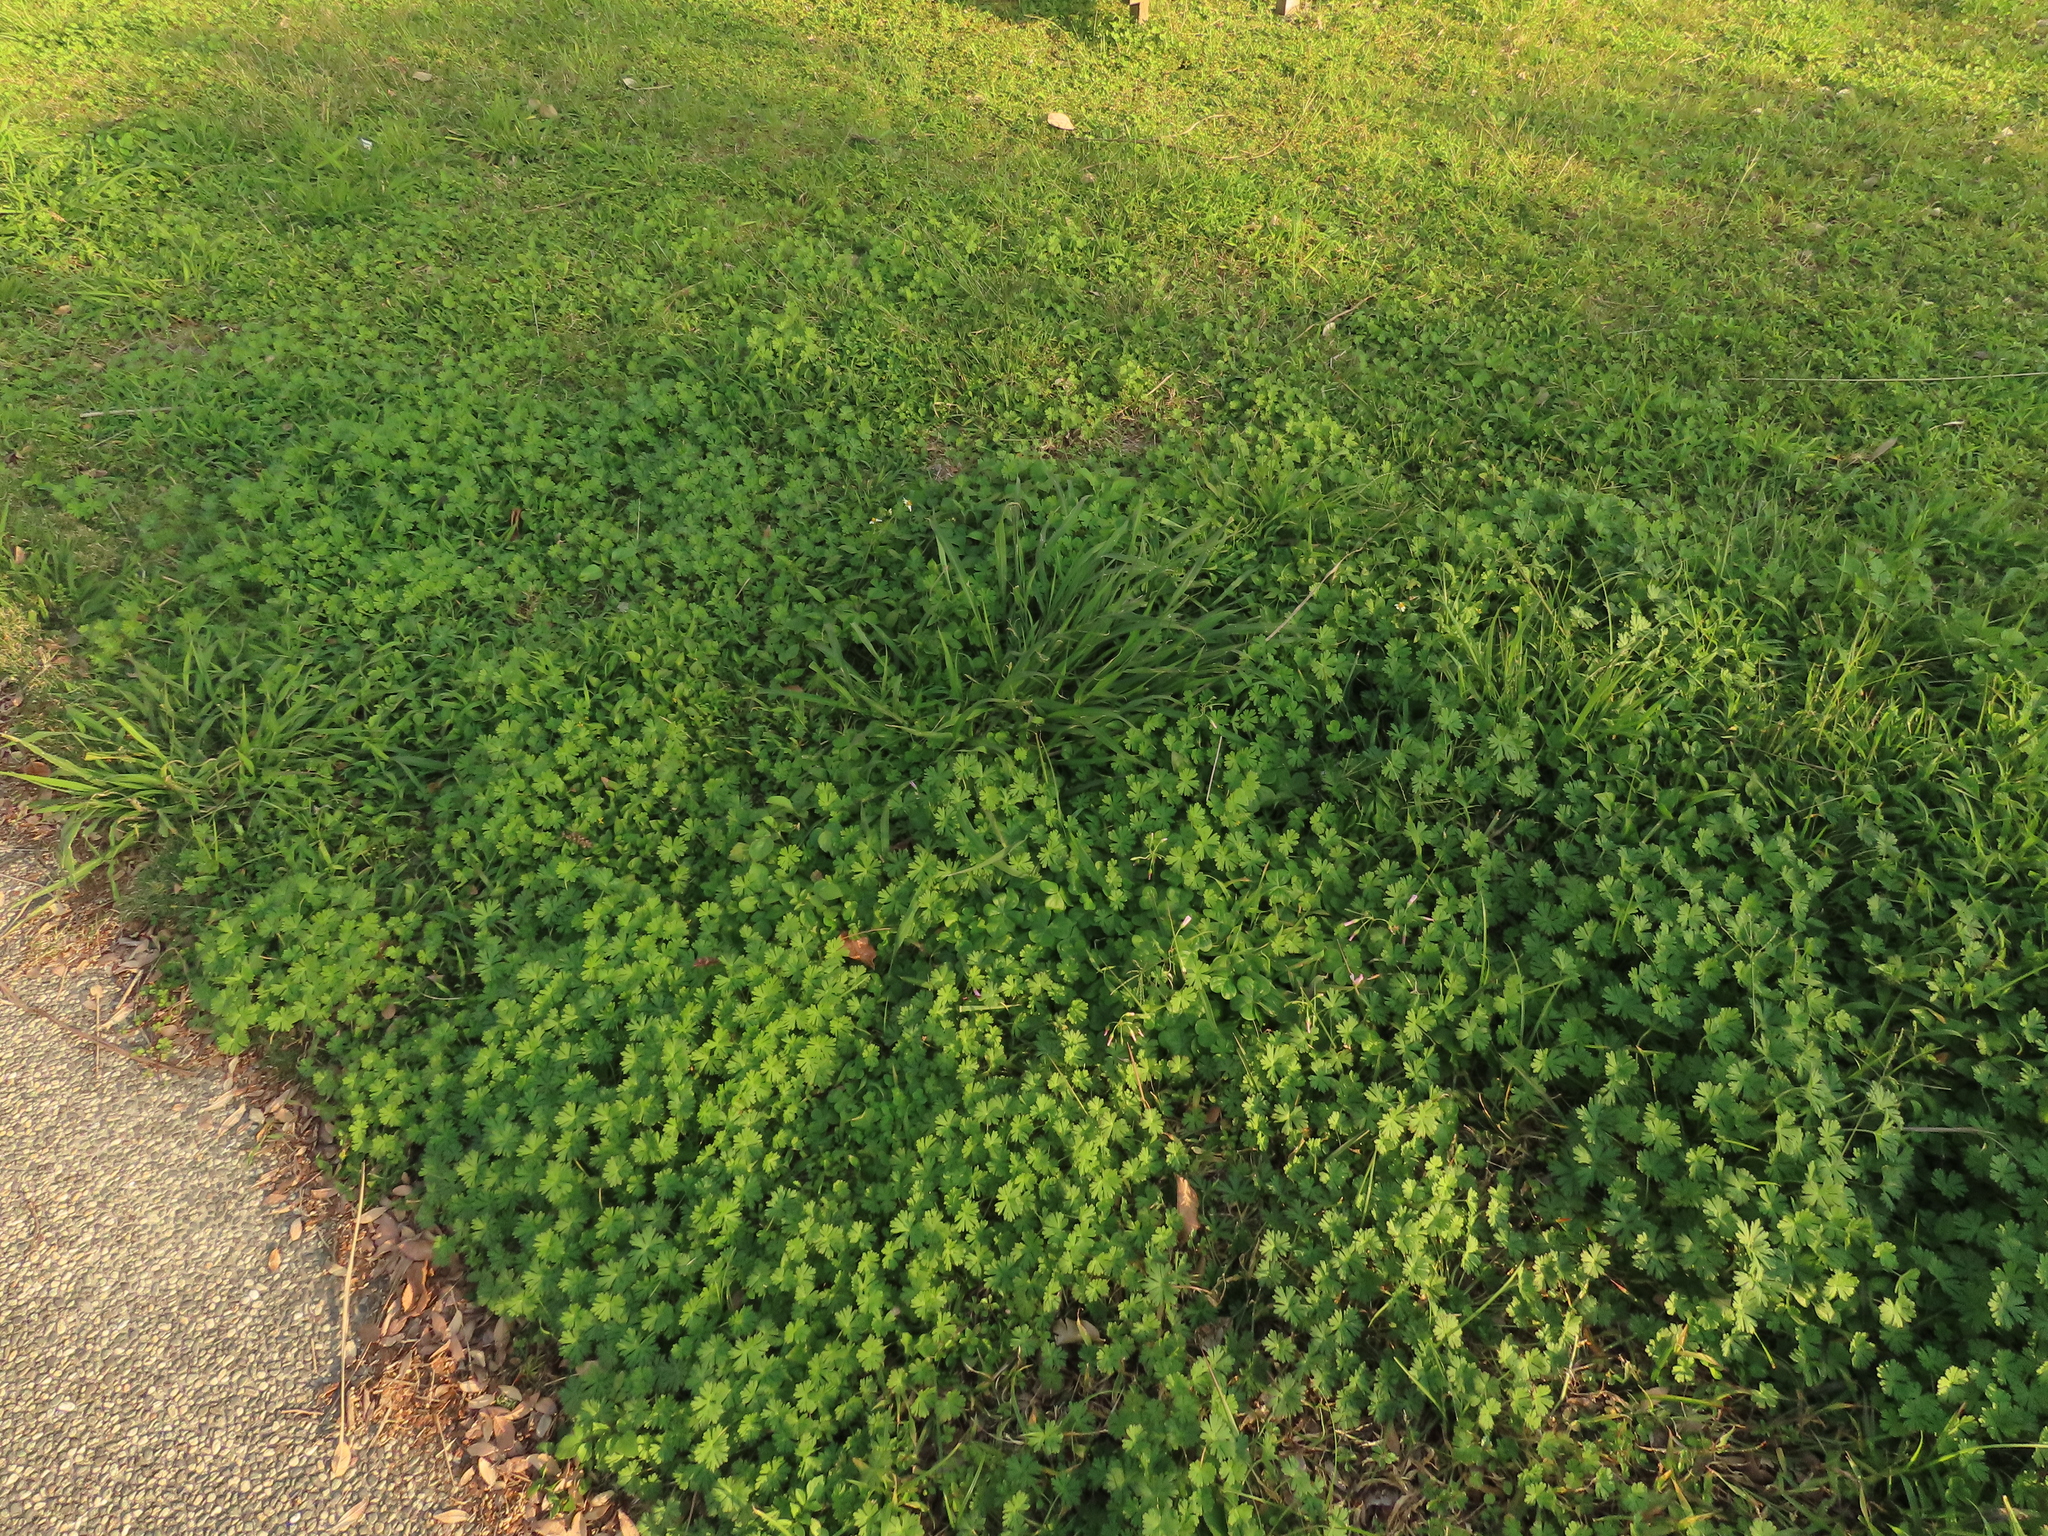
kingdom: Plantae
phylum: Tracheophyta
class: Magnoliopsida
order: Geraniales
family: Geraniaceae
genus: Geranium
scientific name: Geranium carolinianum
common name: Carolina crane's-bill
